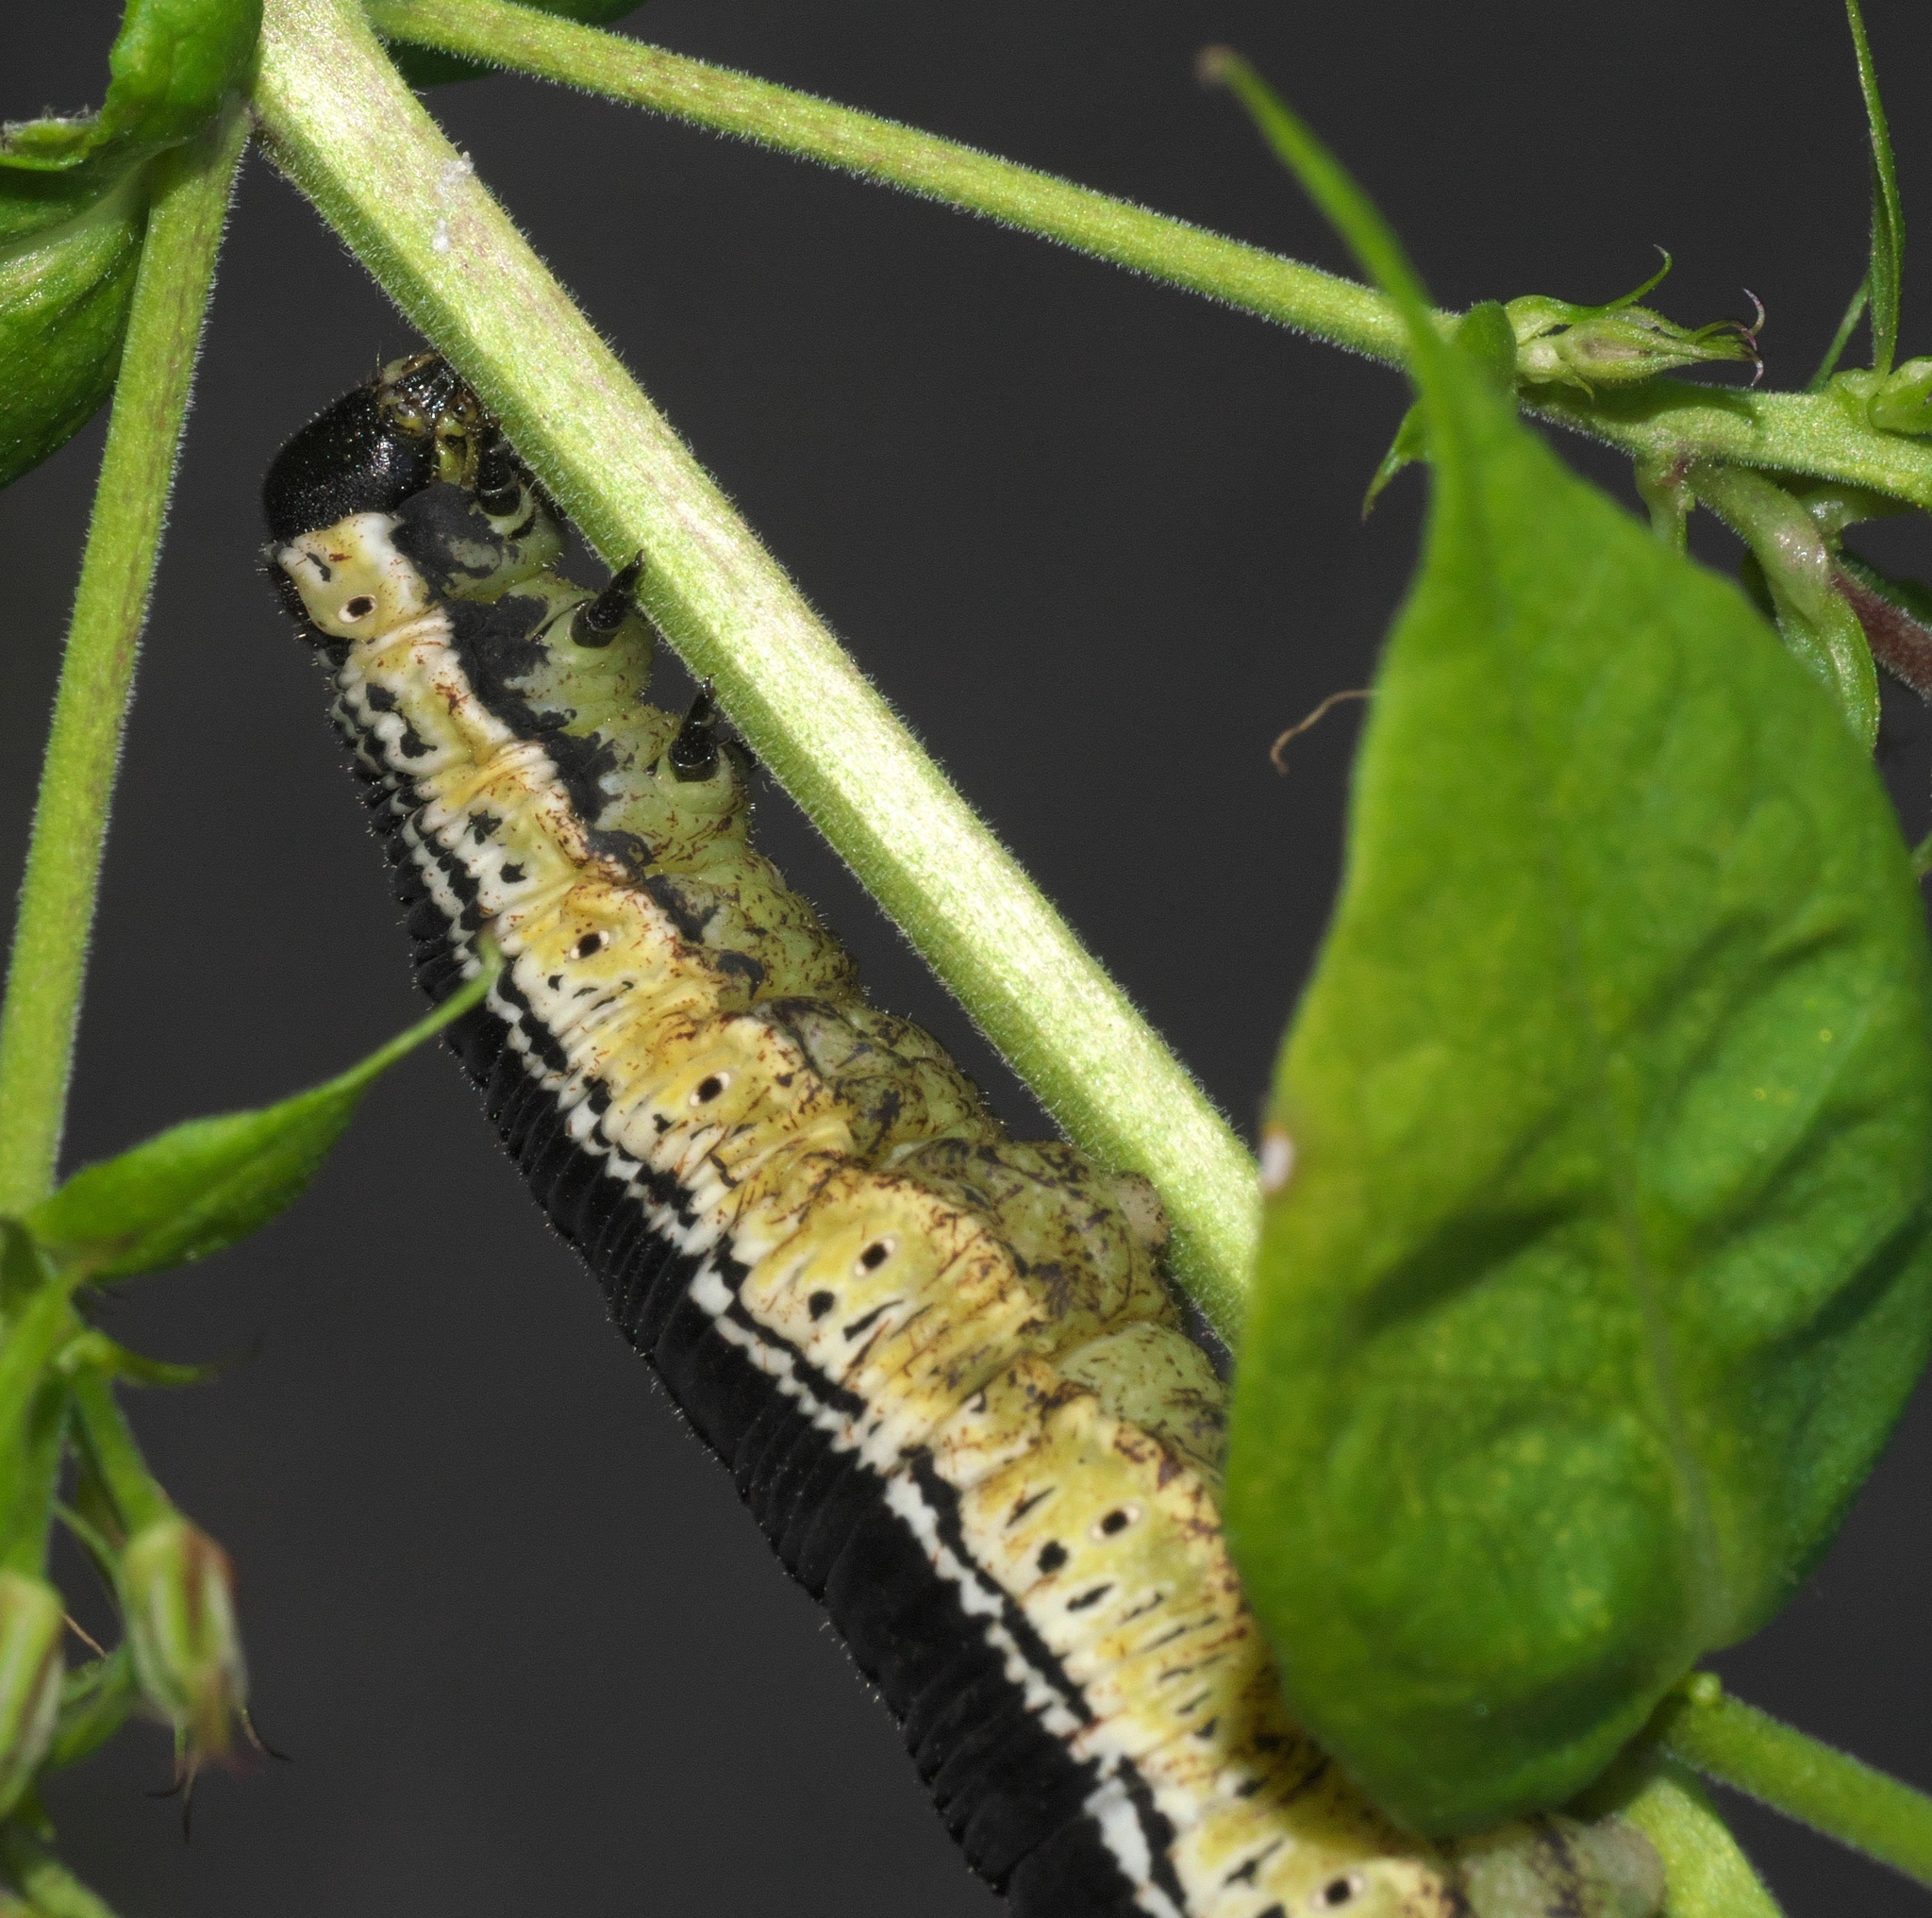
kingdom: Animalia
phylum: Arthropoda
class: Insecta
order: Lepidoptera
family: Sphingidae
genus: Ceratomia
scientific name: Ceratomia catalpae
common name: Catalpa hornworm
